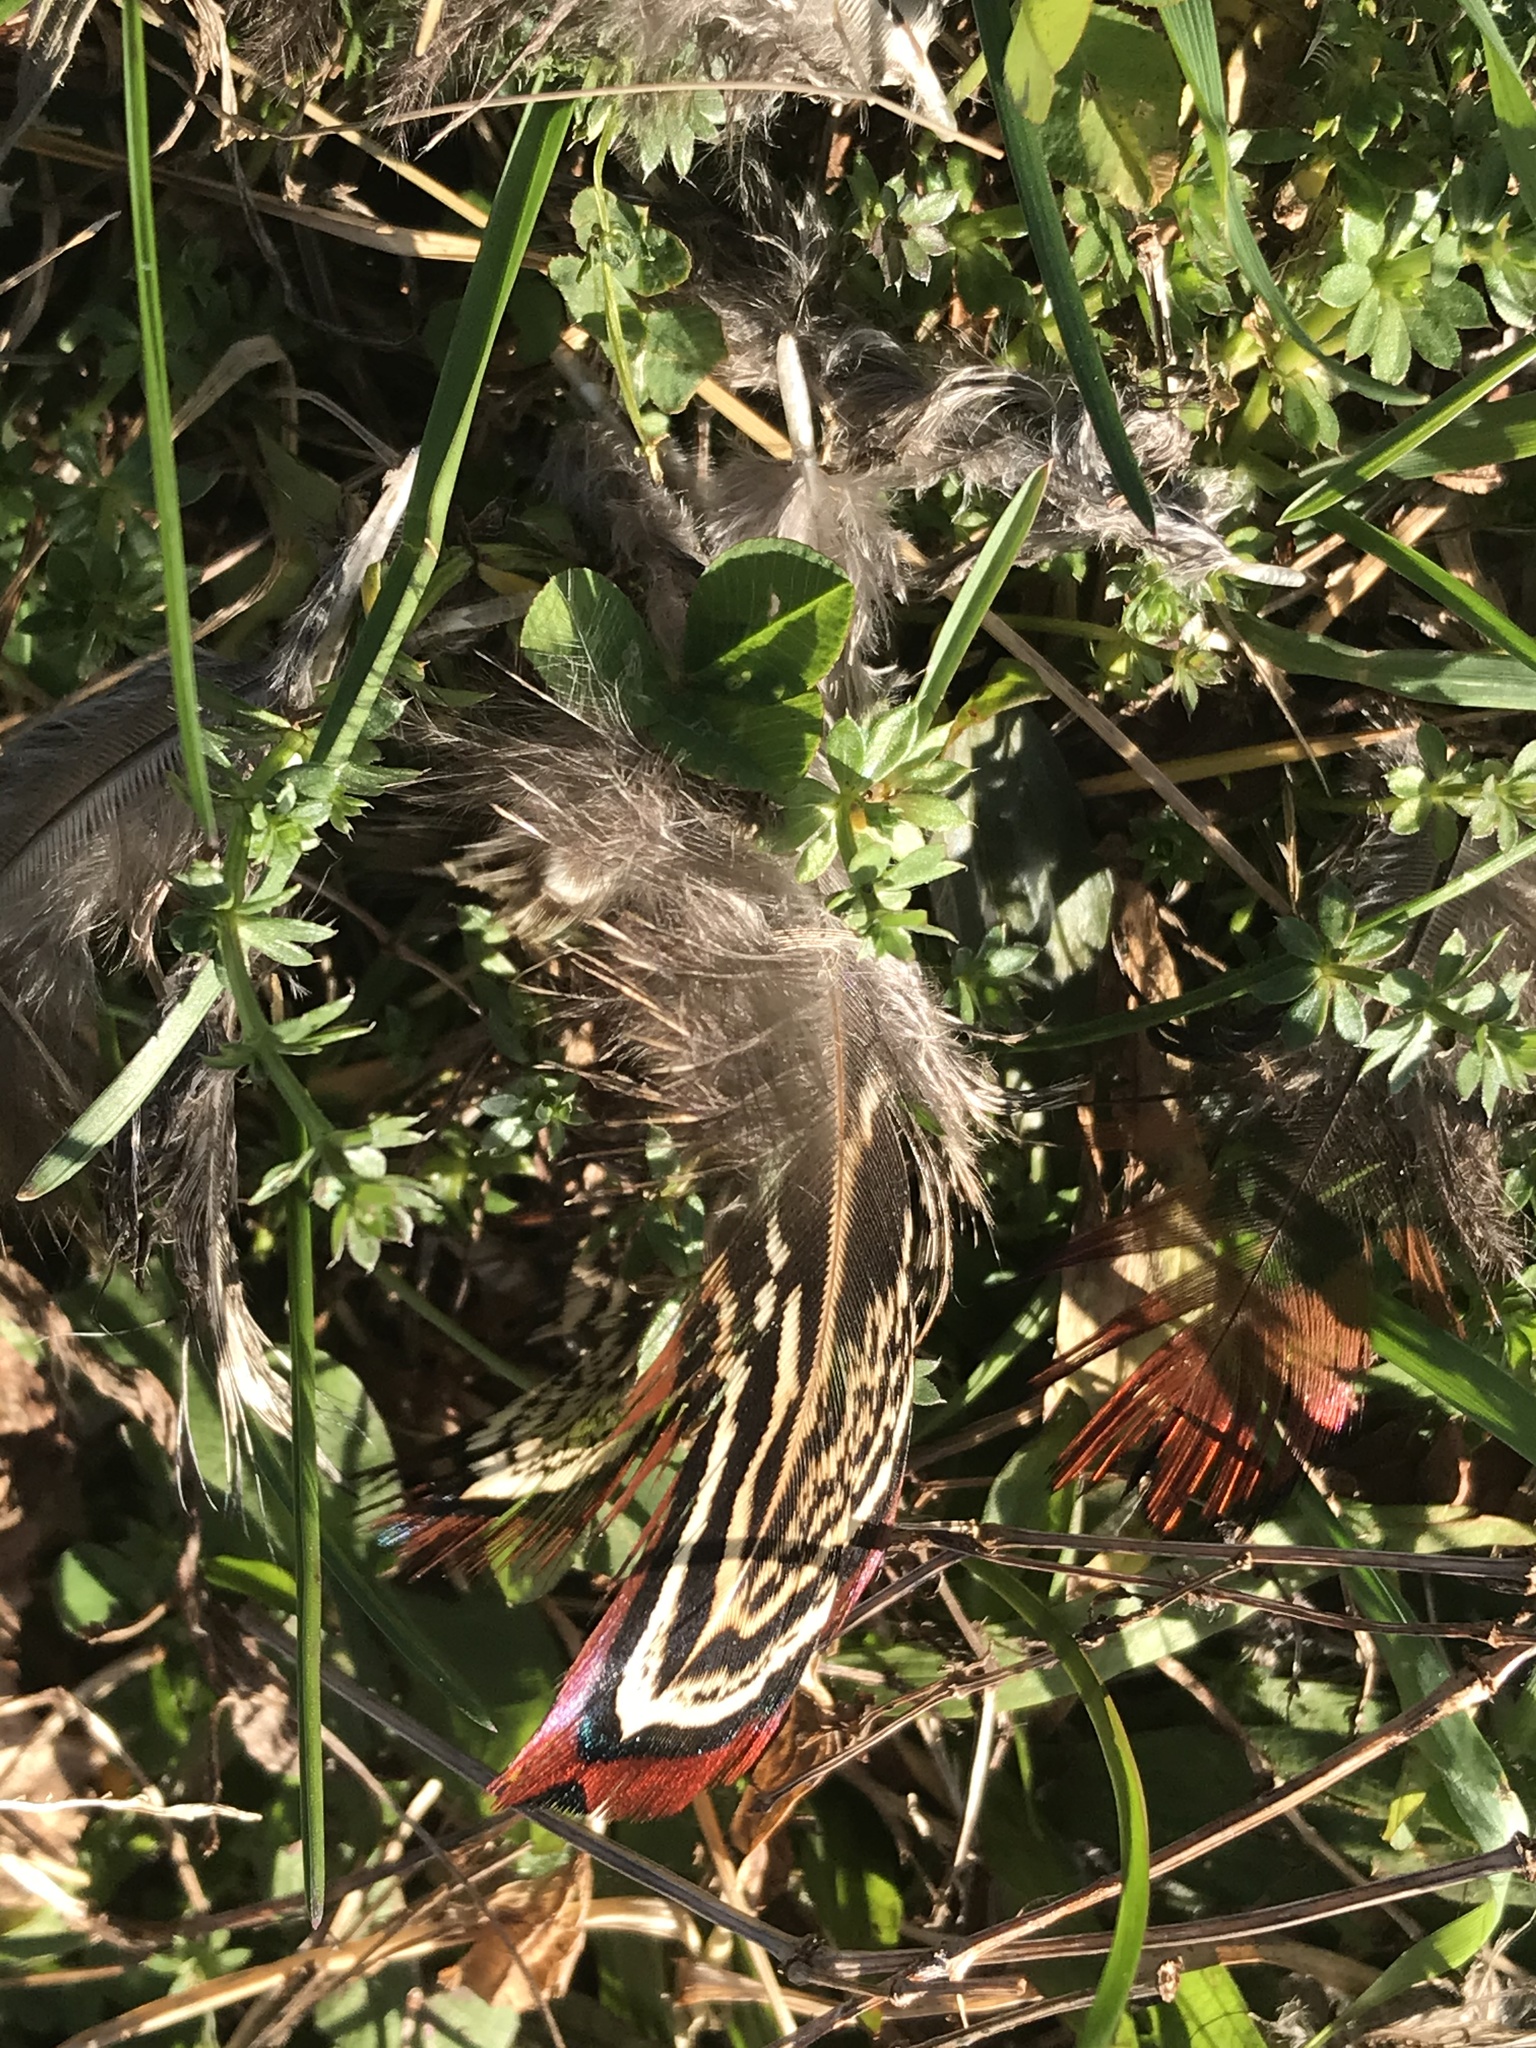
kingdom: Animalia
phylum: Chordata
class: Aves
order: Galliformes
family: Phasianidae
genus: Phasianus
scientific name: Phasianus colchicus
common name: Common pheasant
